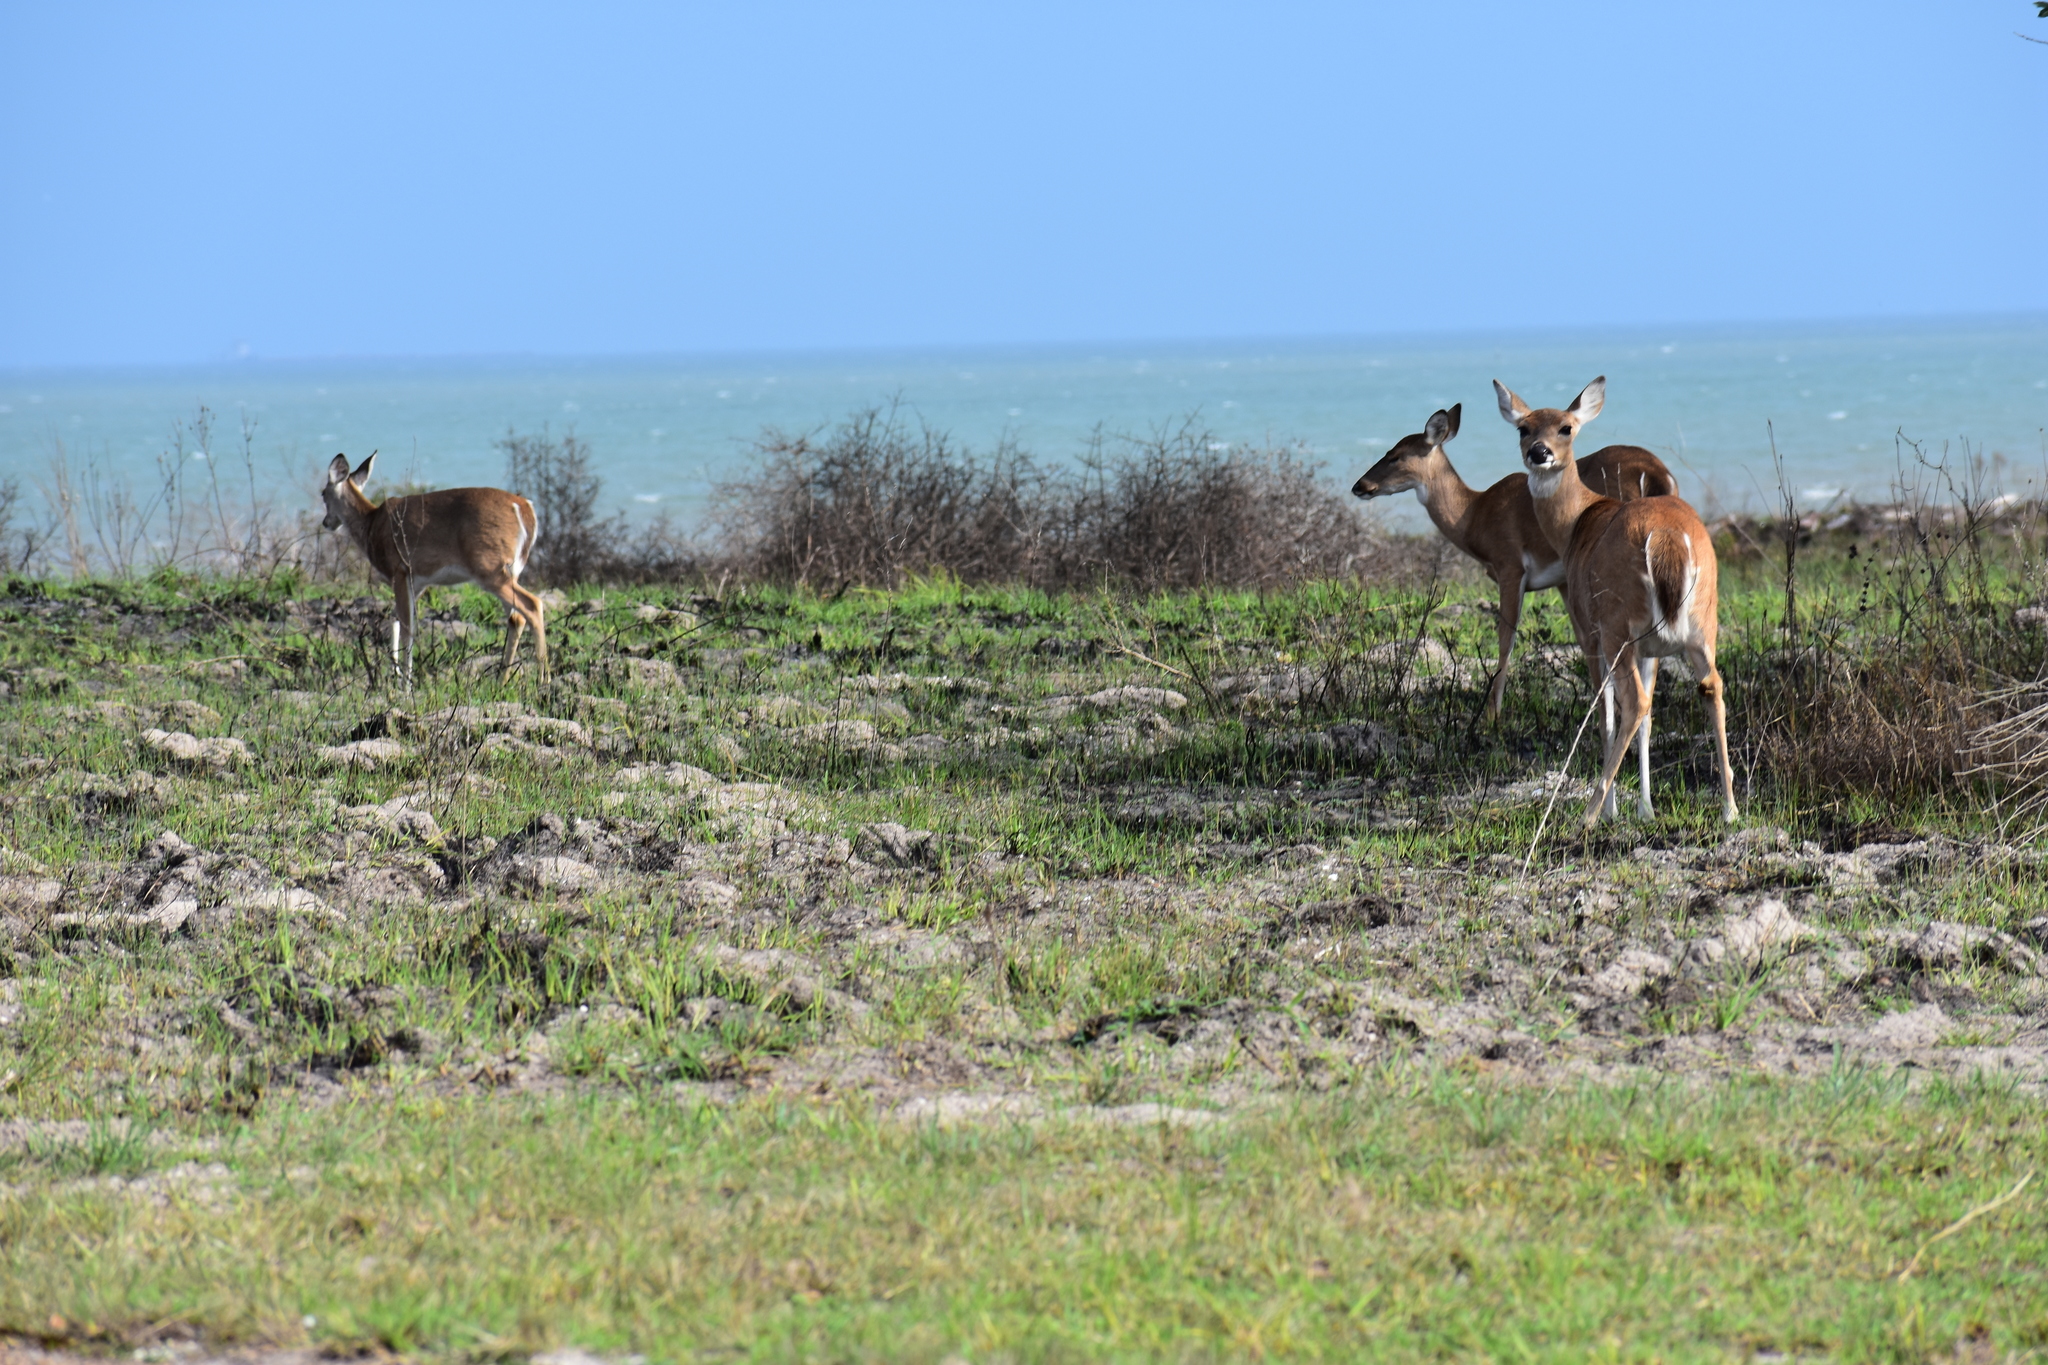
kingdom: Animalia
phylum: Chordata
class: Mammalia
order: Artiodactyla
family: Cervidae
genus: Odocoileus
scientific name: Odocoileus virginianus
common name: White-tailed deer
